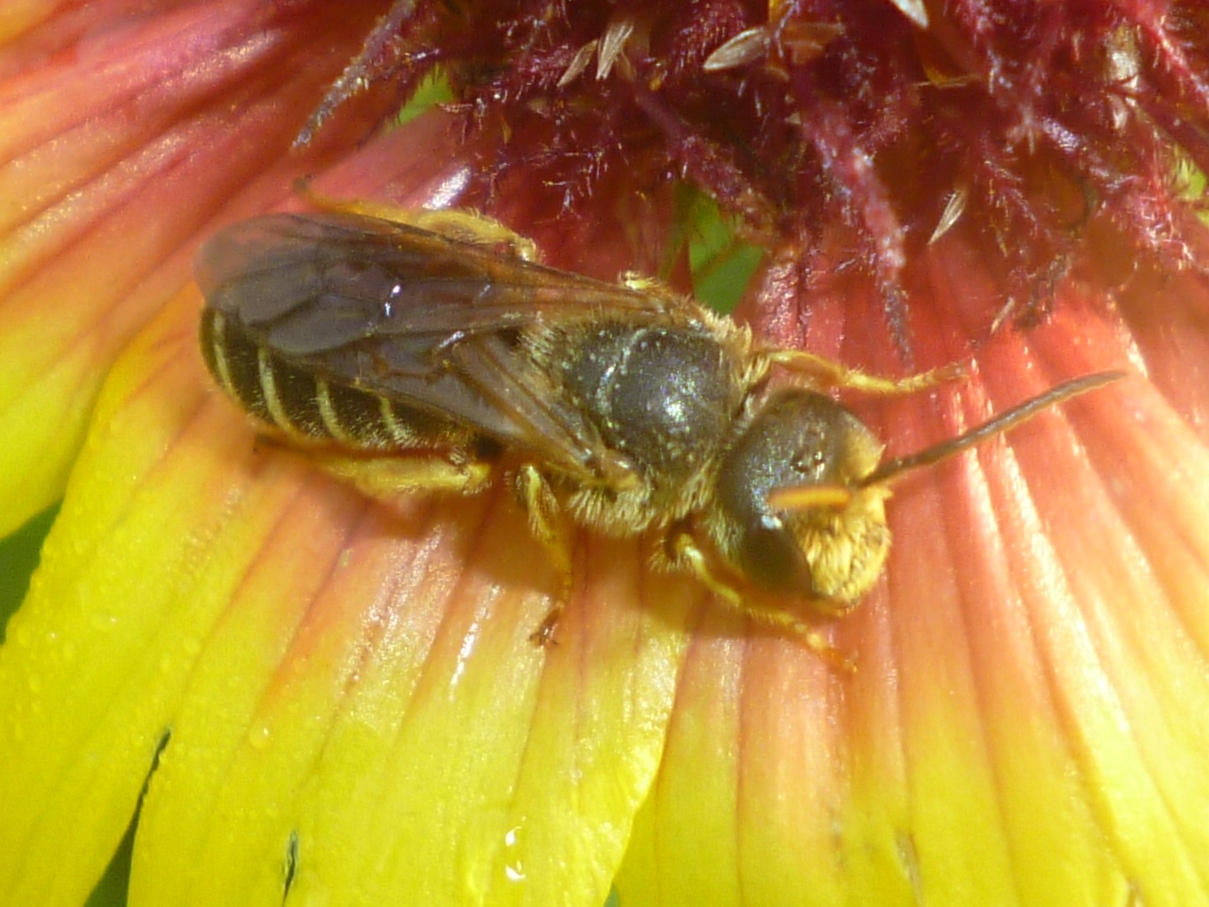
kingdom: Animalia
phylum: Arthropoda
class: Insecta
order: Hymenoptera
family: Halictidae
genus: Halictus
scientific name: Halictus poeyi
